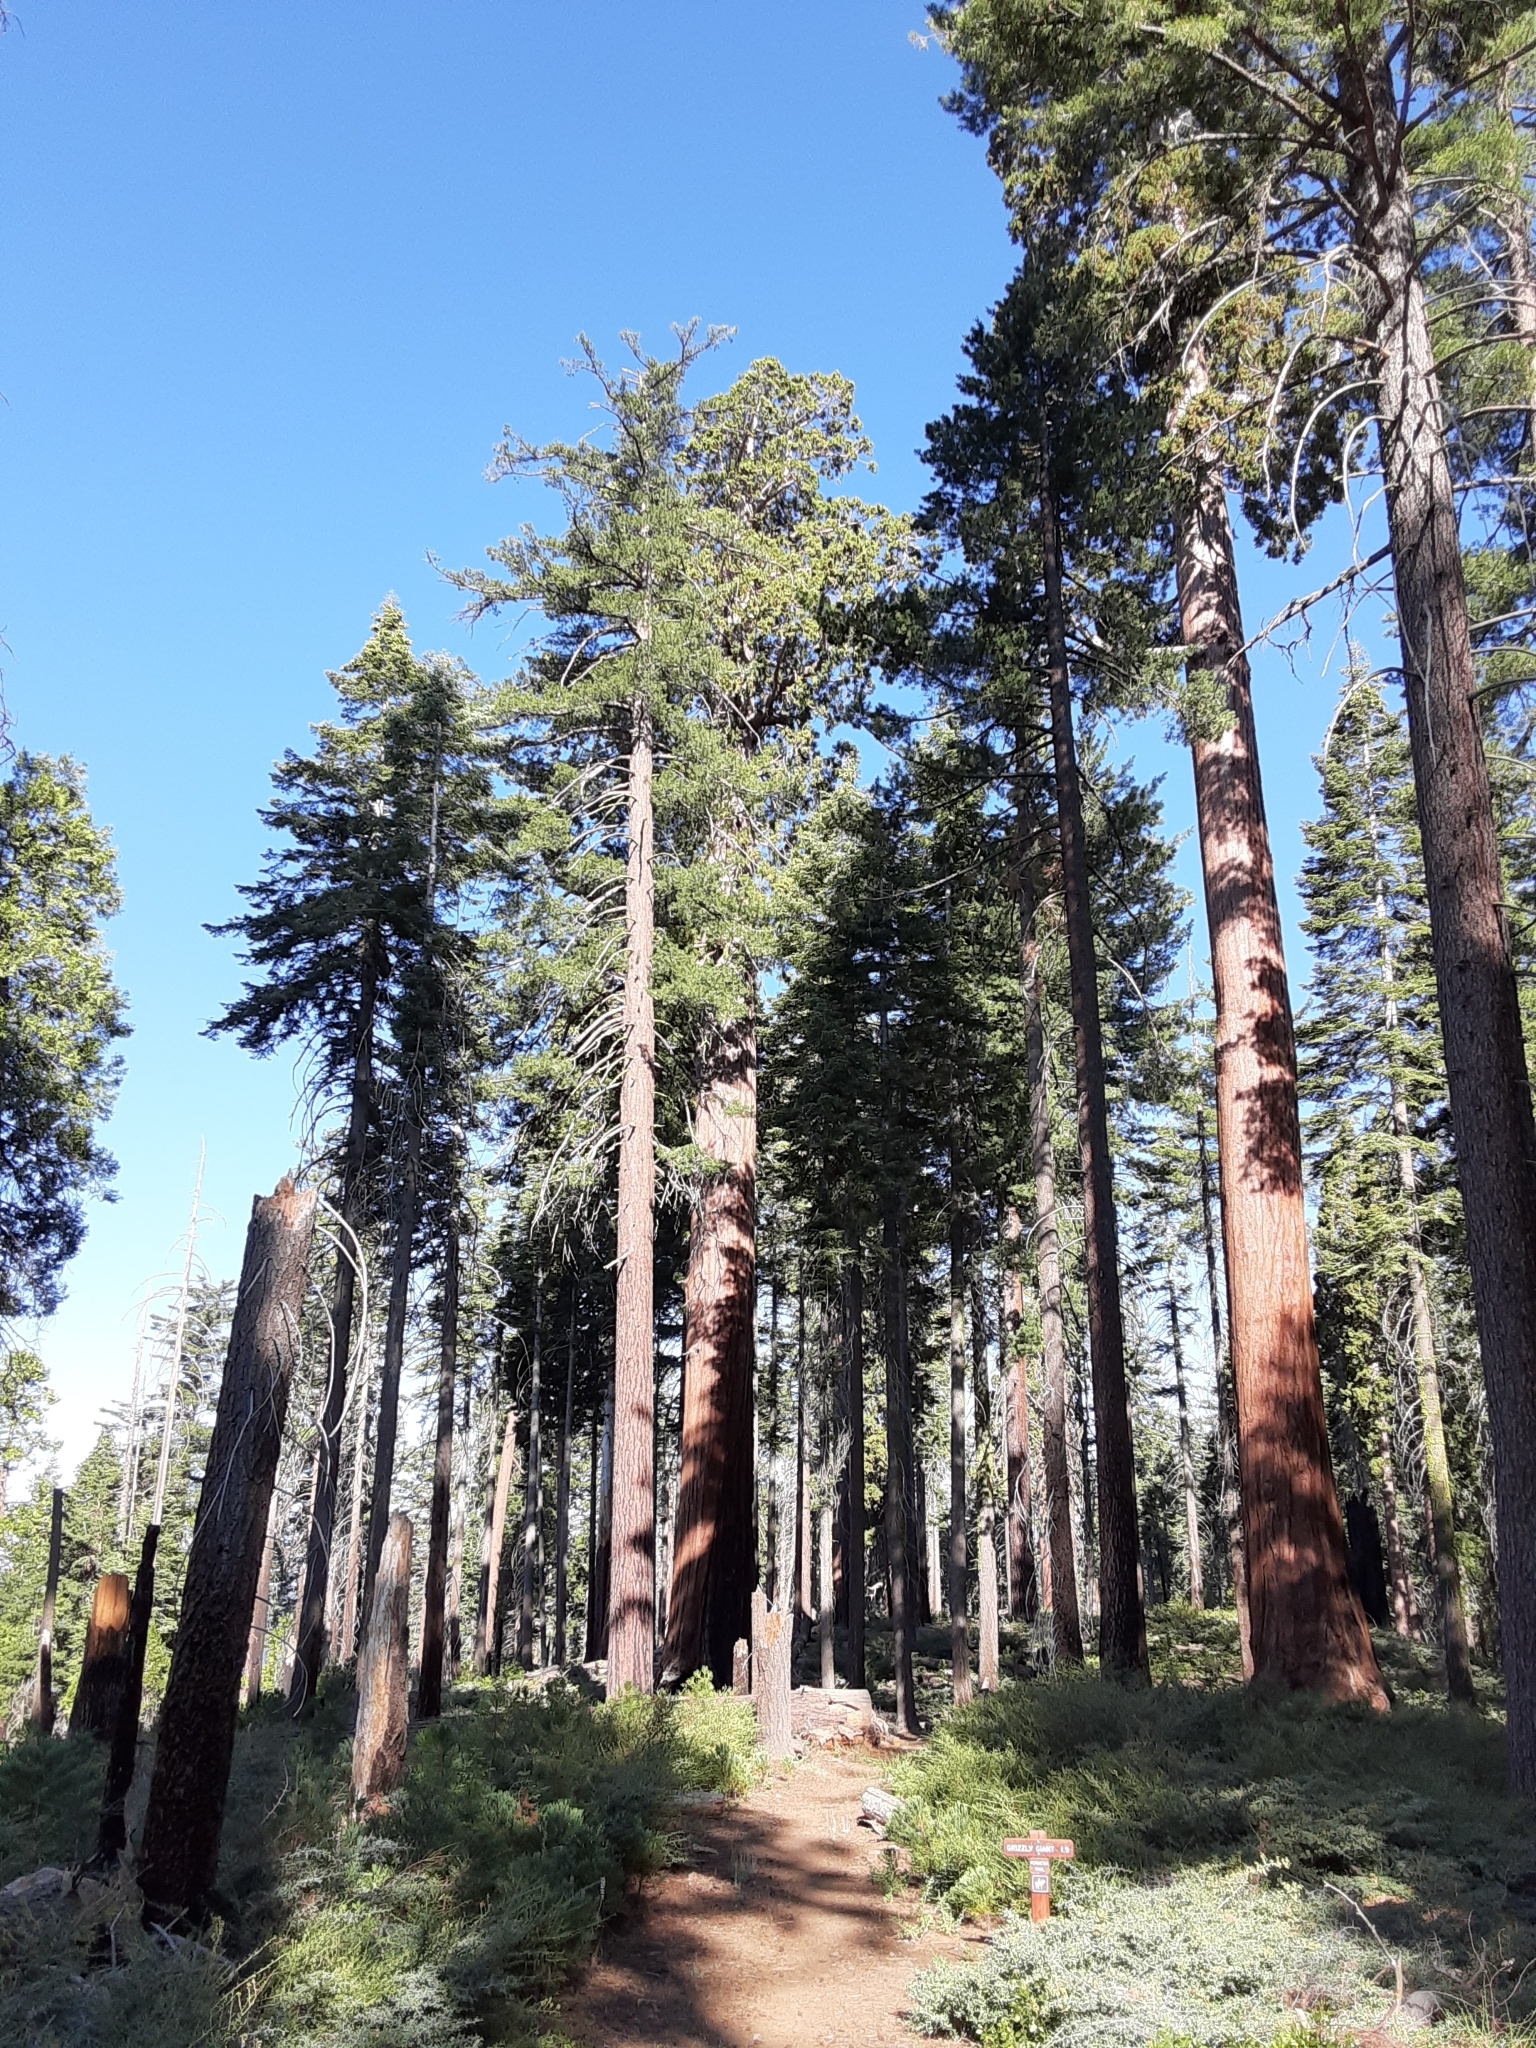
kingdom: Plantae
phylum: Tracheophyta
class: Pinopsida
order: Pinales
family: Cupressaceae
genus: Sequoiadendron
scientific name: Sequoiadendron giganteum
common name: Wellingtonia
